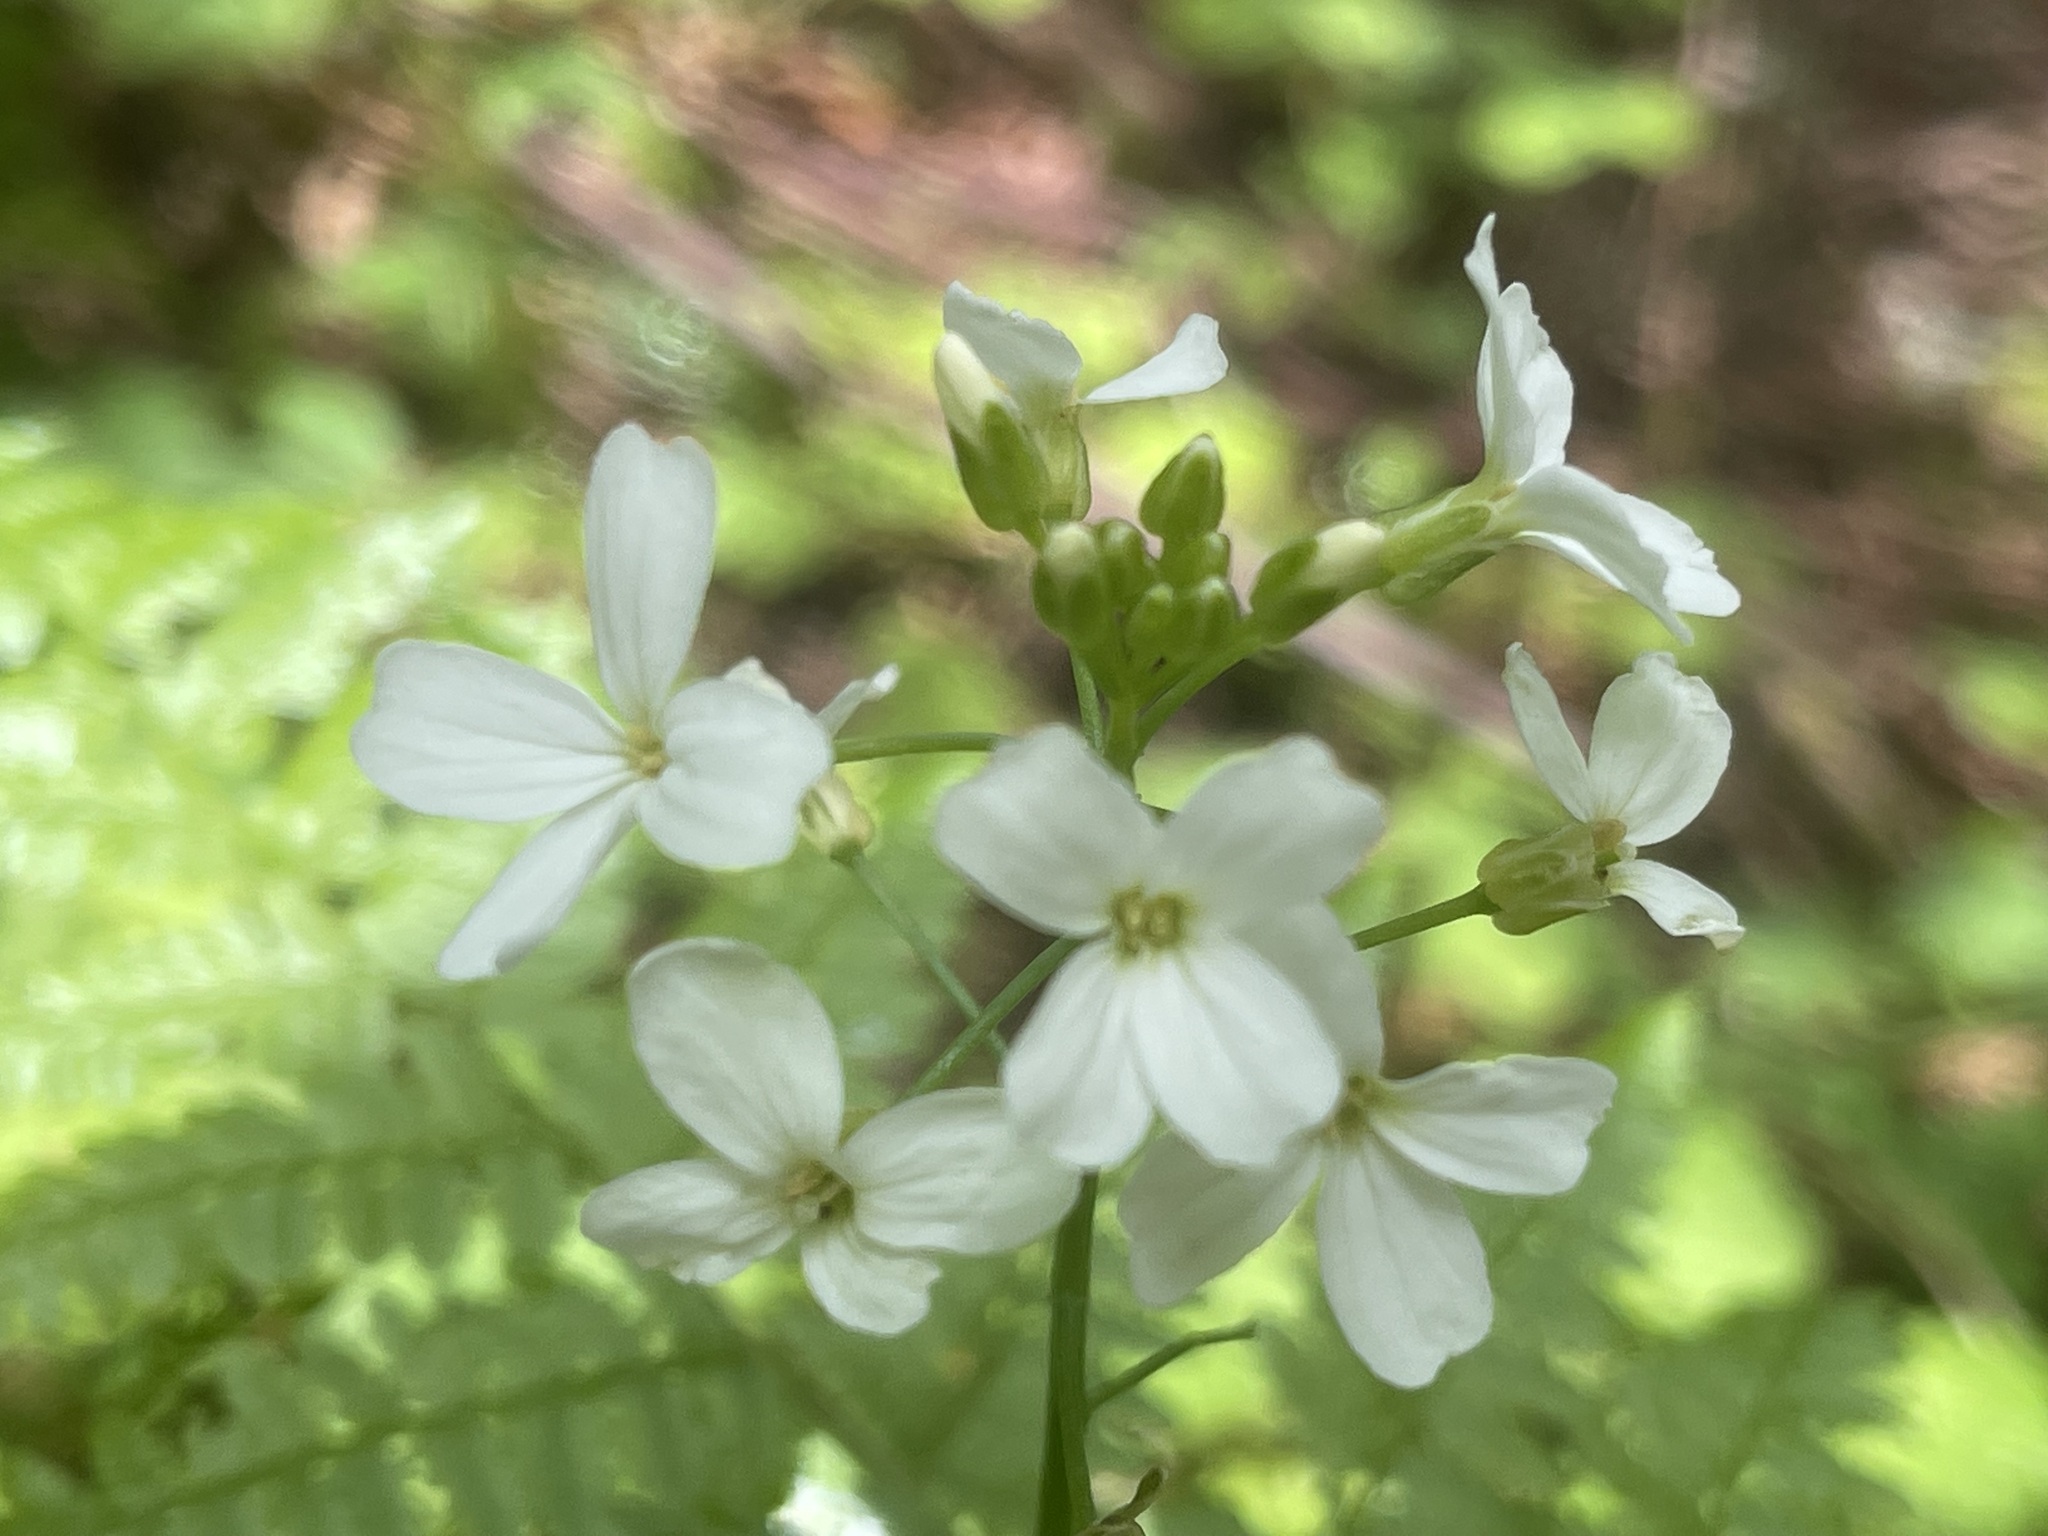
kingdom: Plantae
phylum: Tracheophyta
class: Magnoliopsida
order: Brassicales
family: Brassicaceae
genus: Cardamine
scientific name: Cardamine angulata
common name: Angled bittercress
